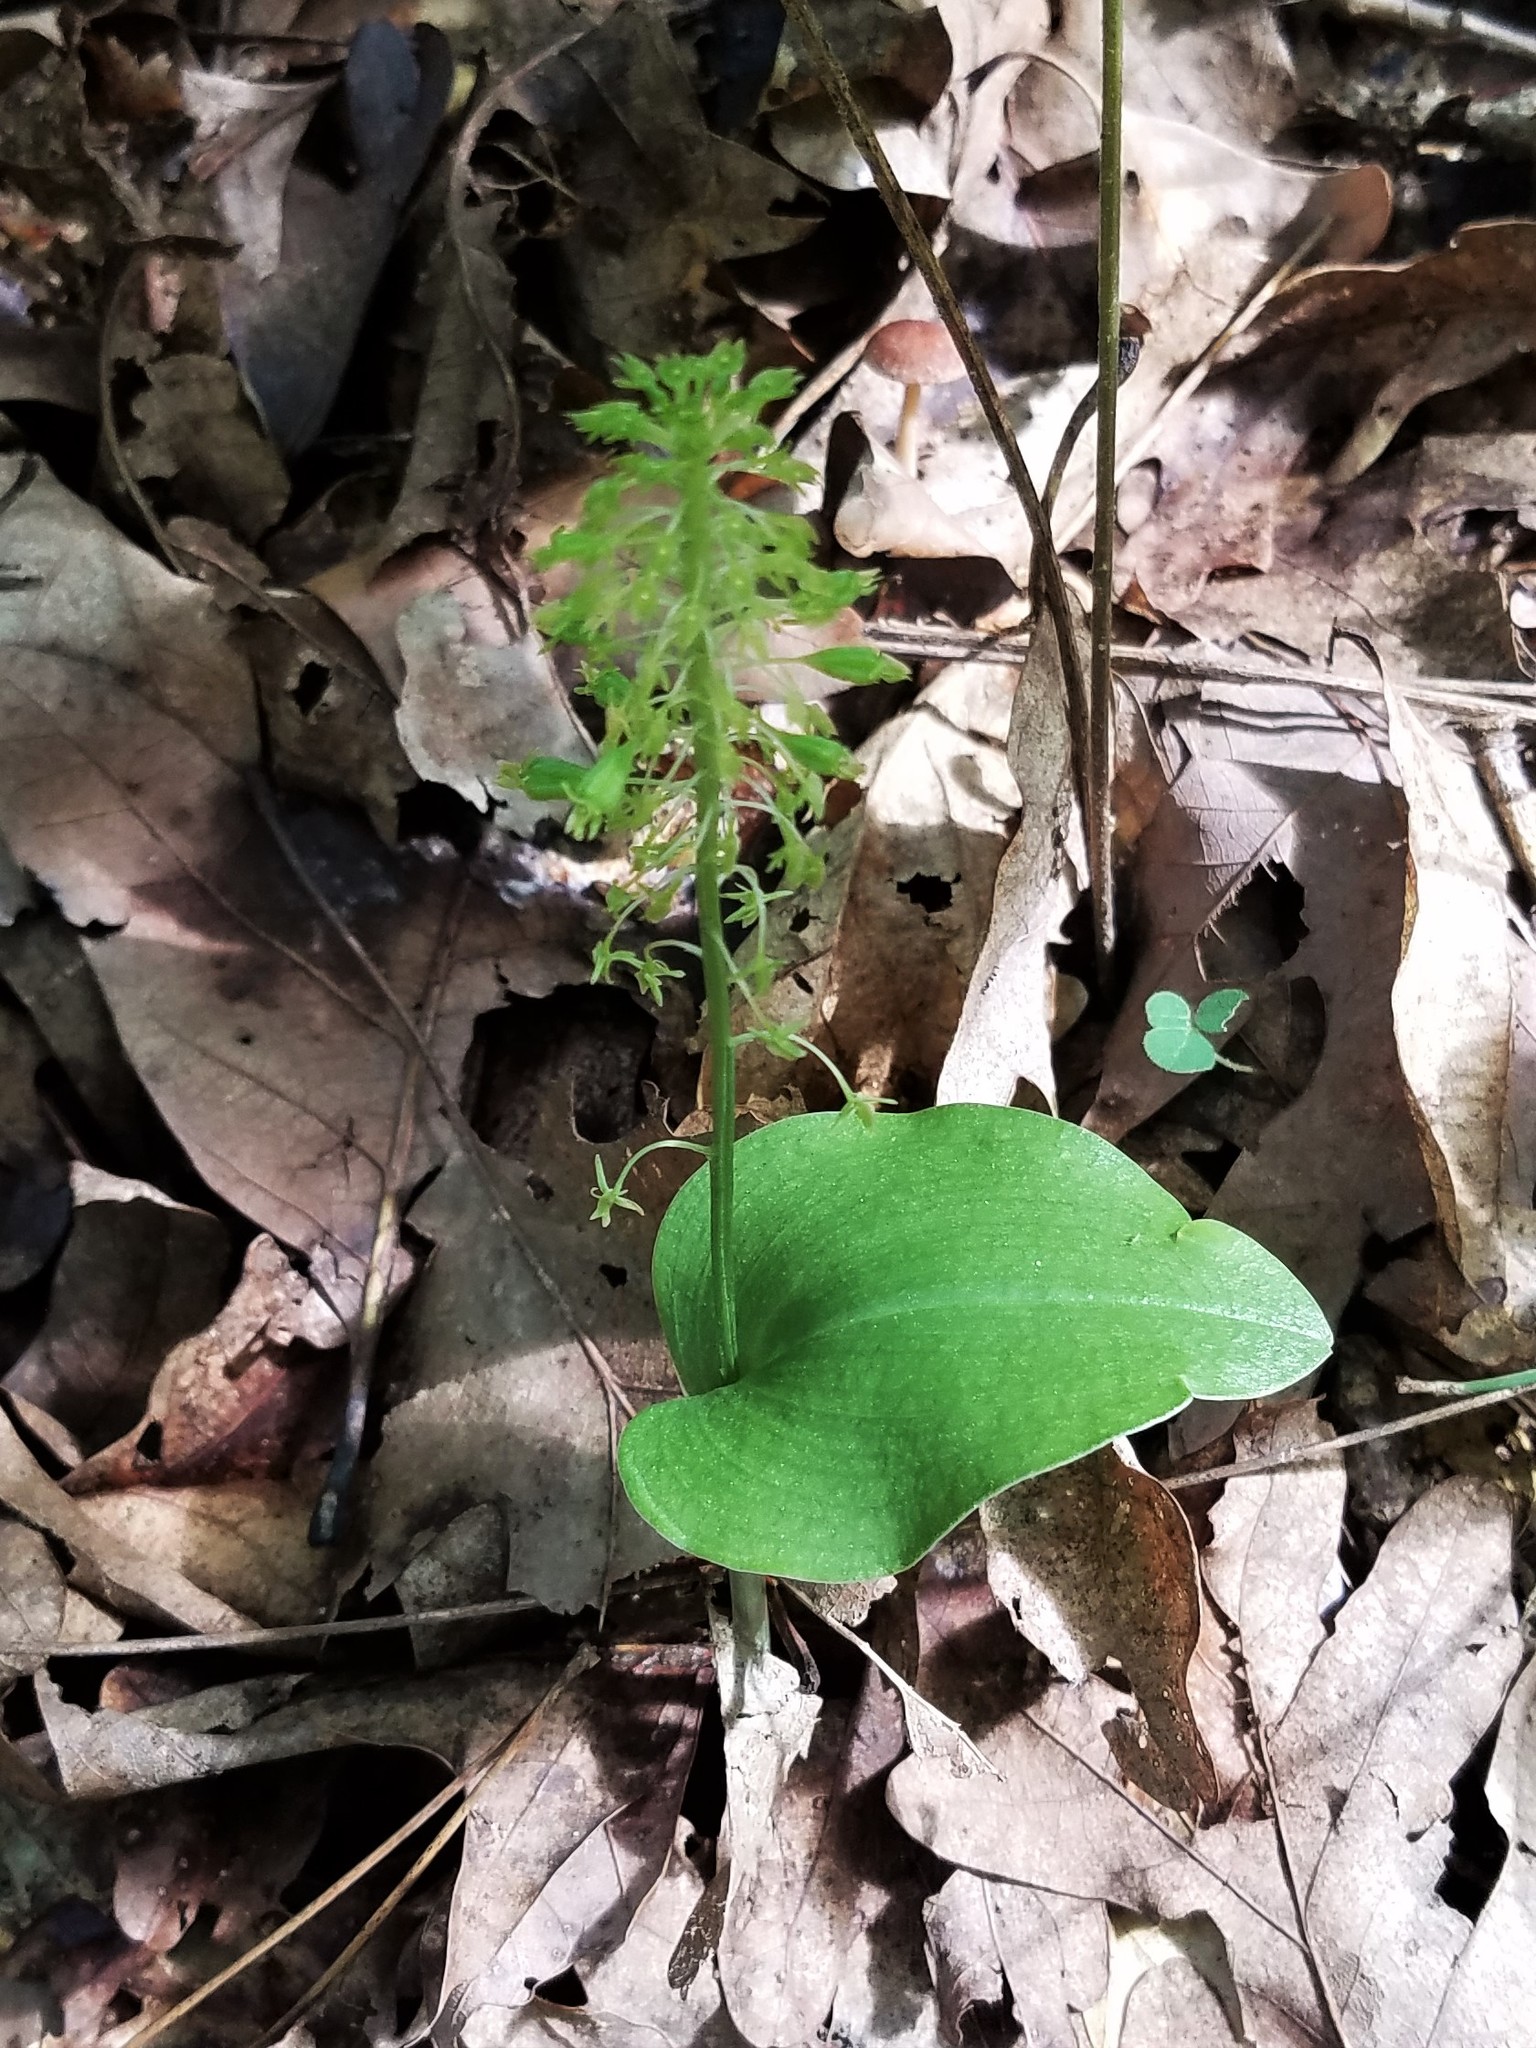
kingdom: Plantae
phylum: Tracheophyta
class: Liliopsida
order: Asparagales
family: Orchidaceae
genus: Malaxis
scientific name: Malaxis unifolia
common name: Green adder's-mouth
